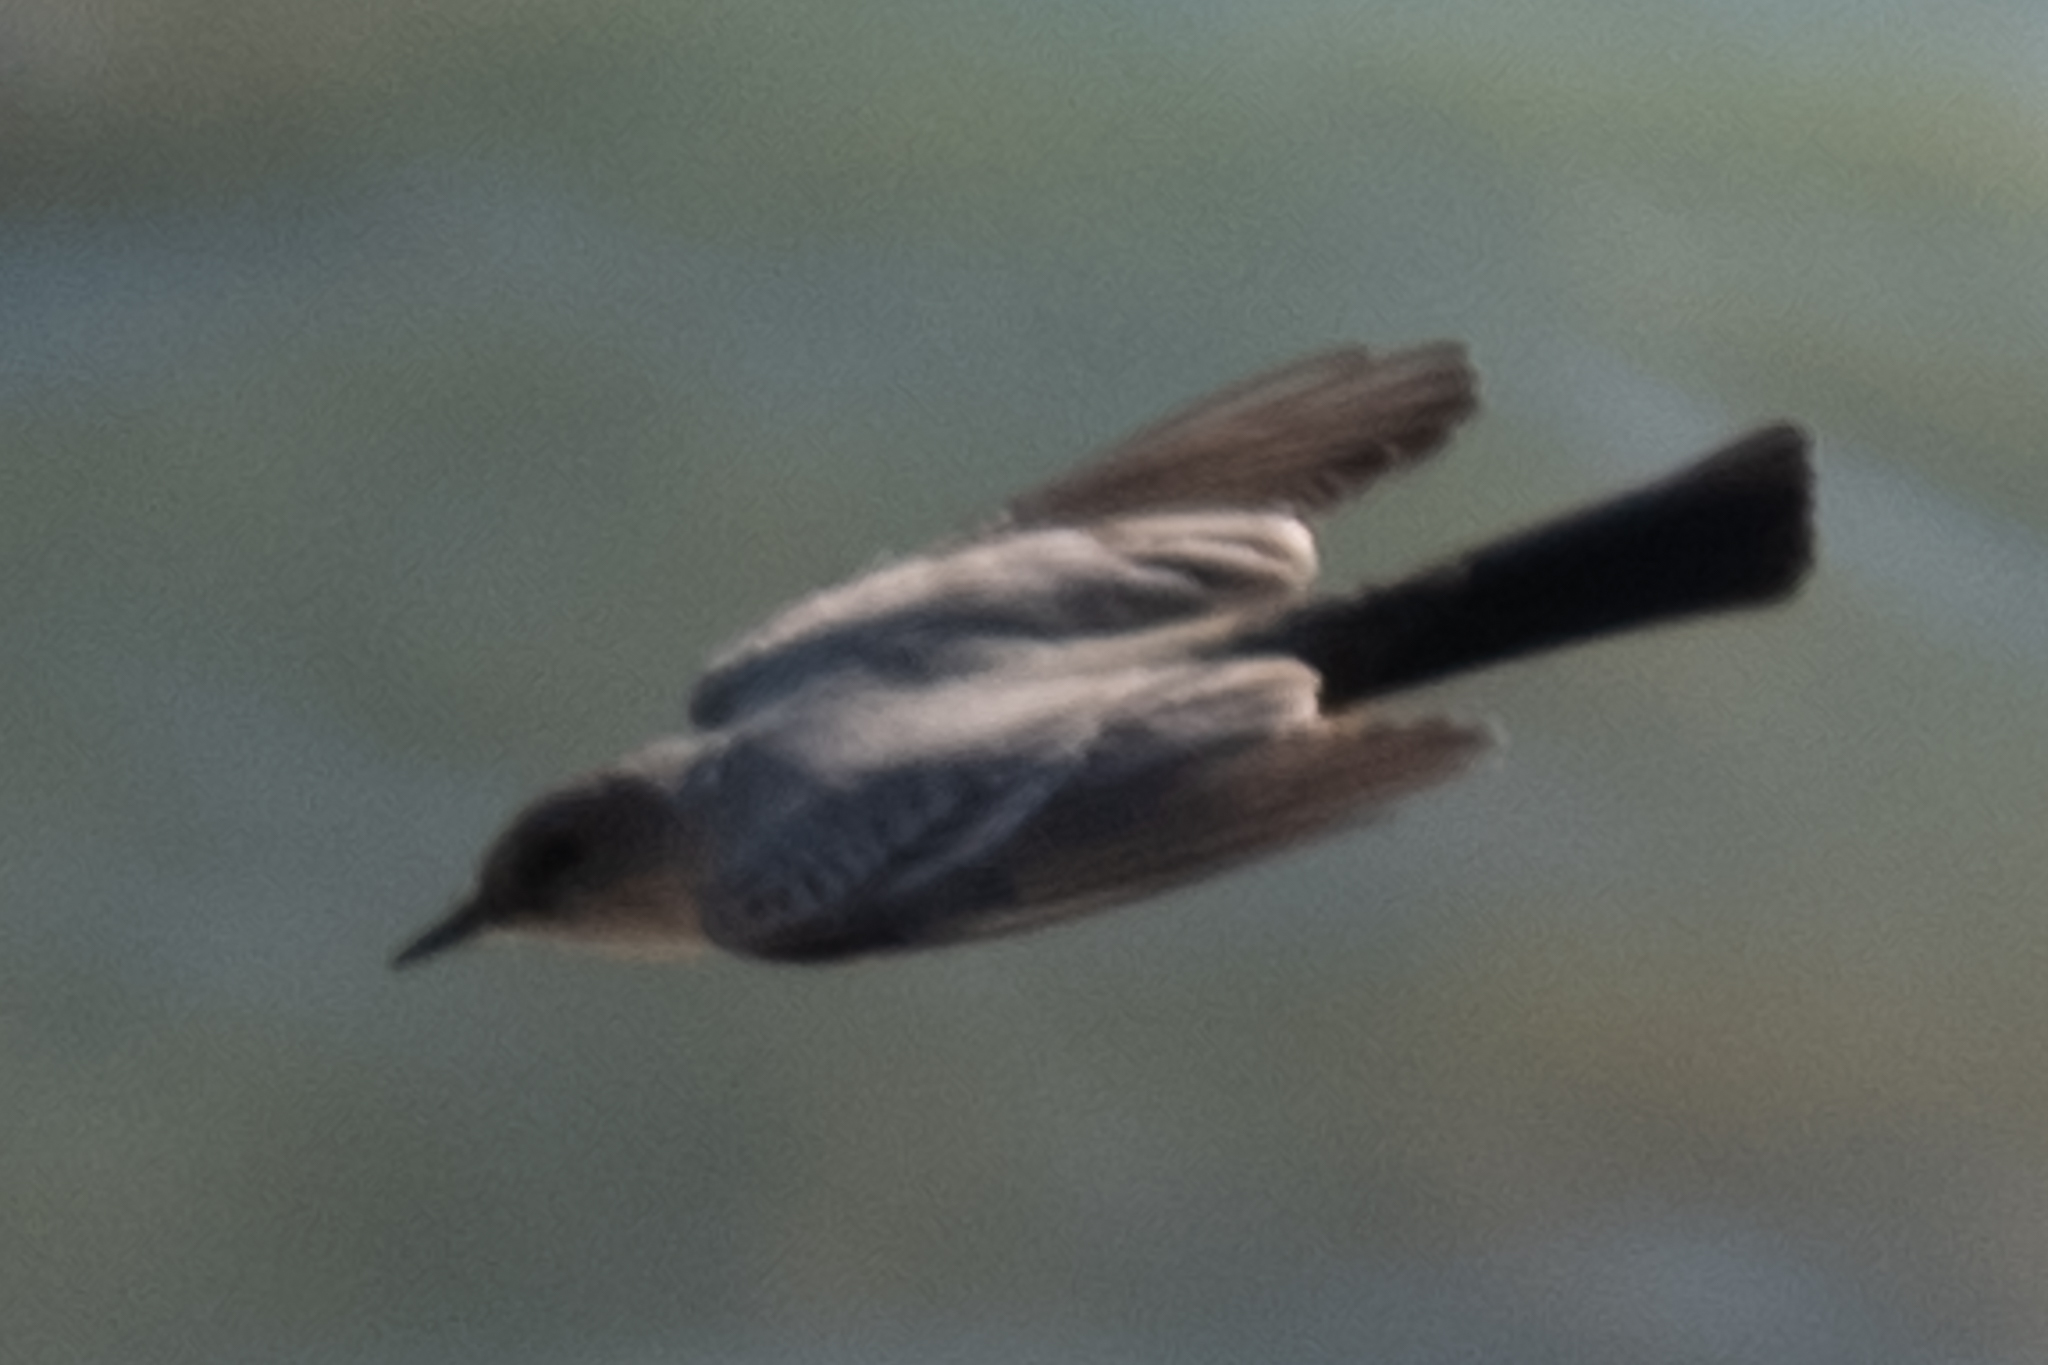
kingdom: Animalia
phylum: Chordata
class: Aves
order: Passeriformes
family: Tyrannidae
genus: Sayornis
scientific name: Sayornis saya
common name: Say's phoebe
